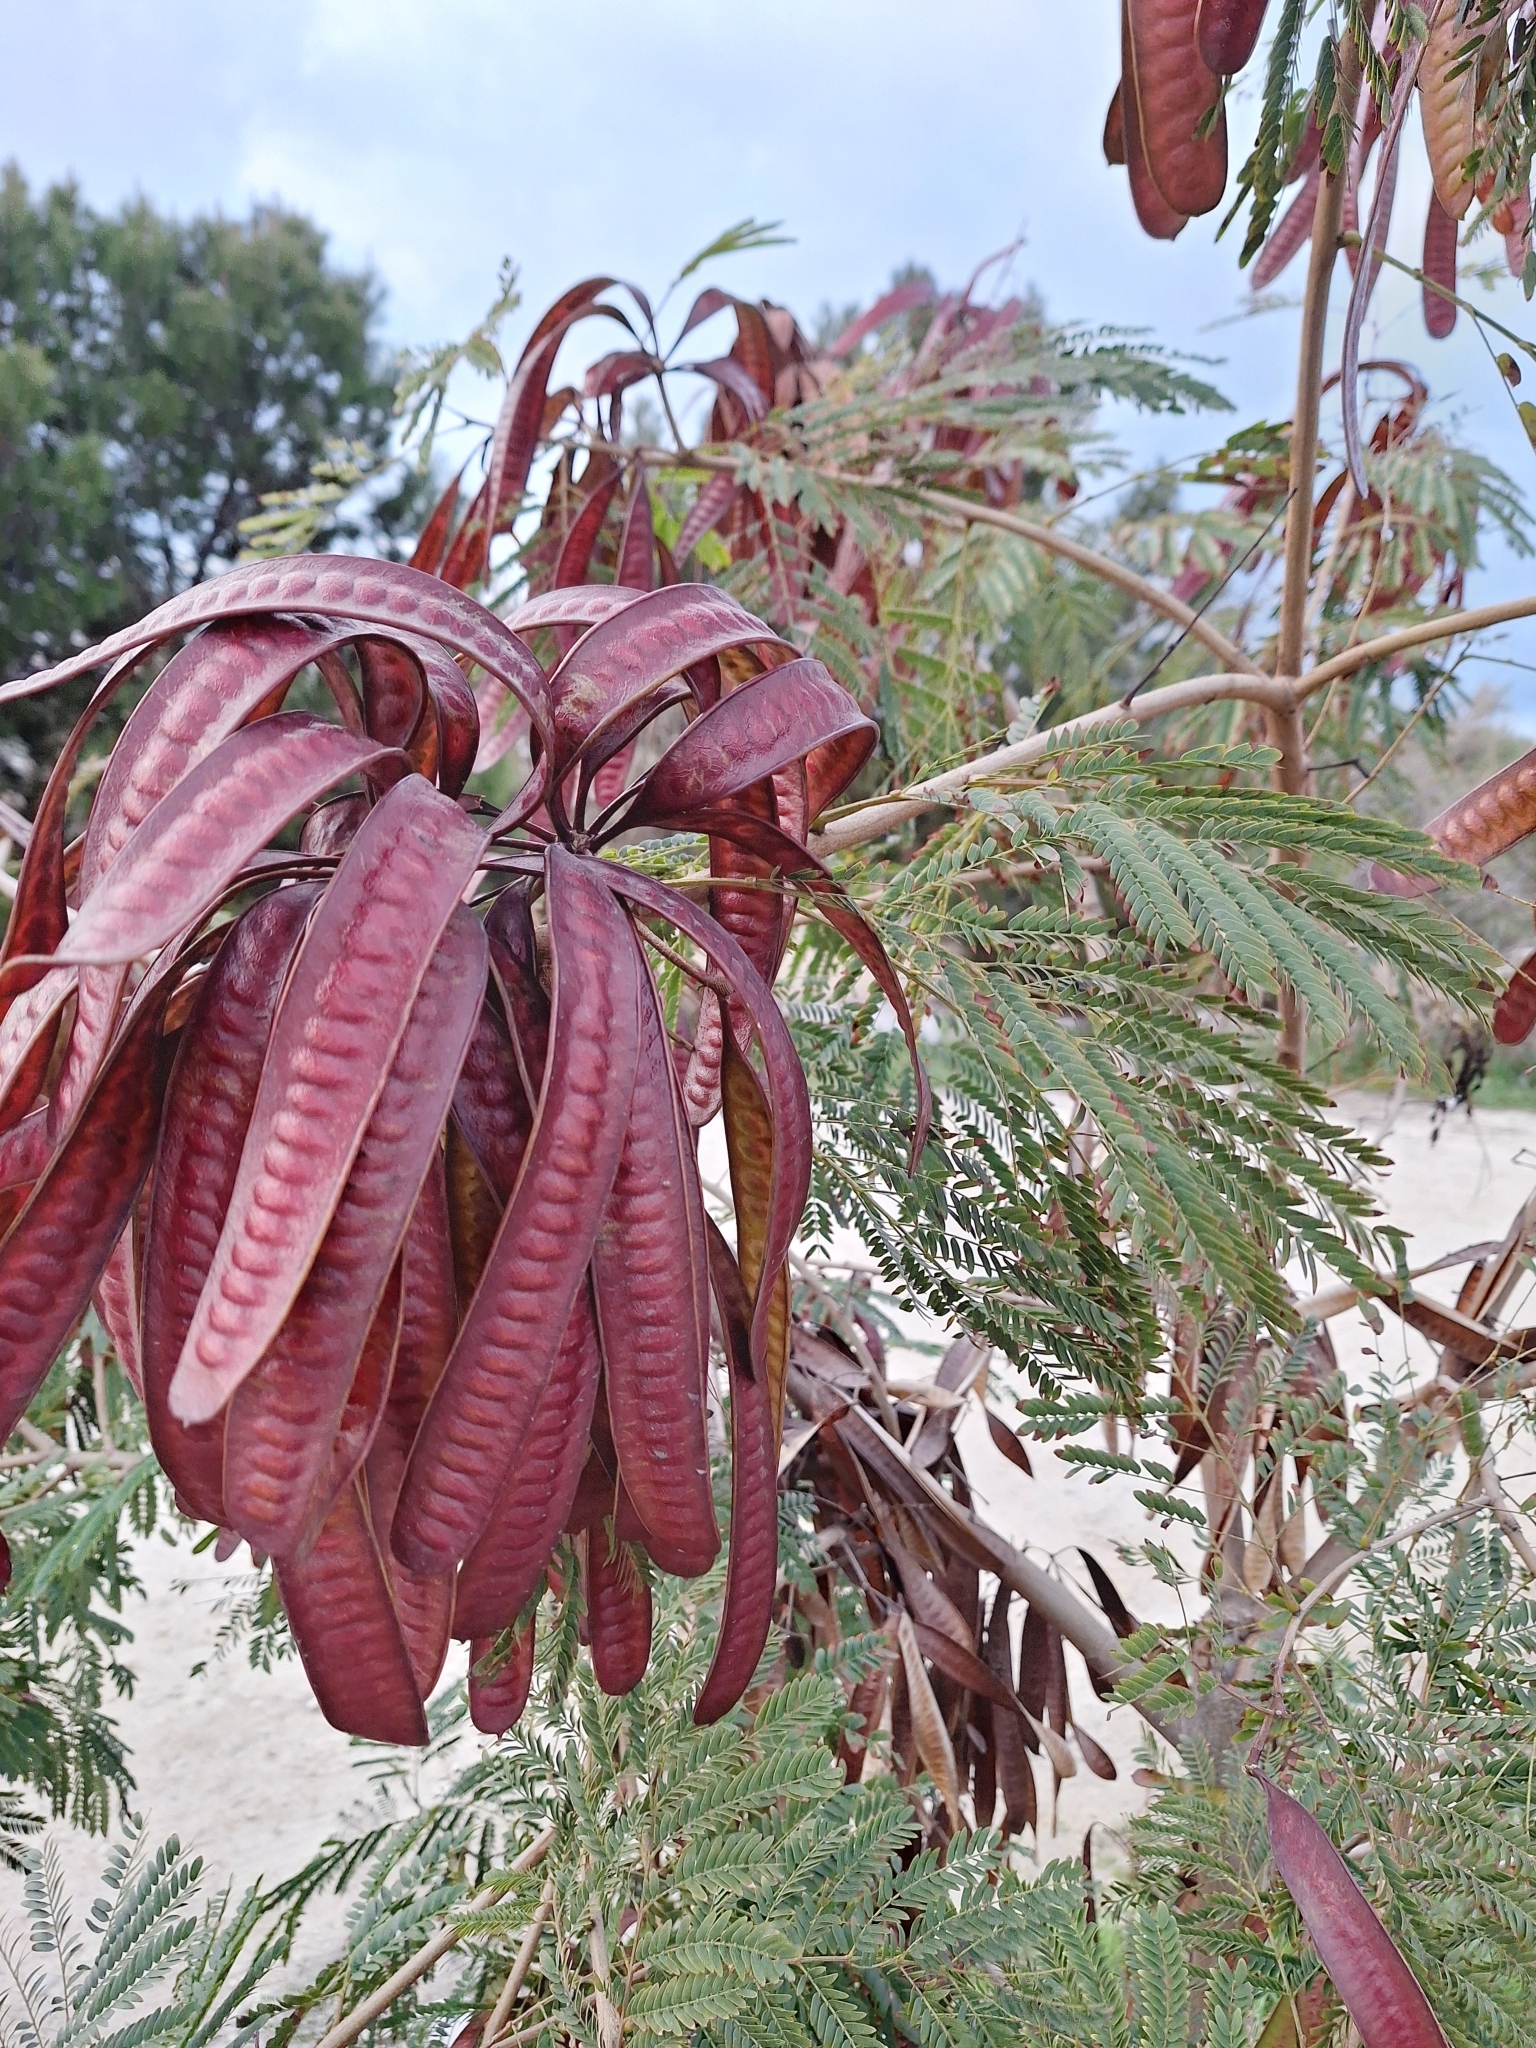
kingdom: Plantae
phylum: Tracheophyta
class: Magnoliopsida
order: Fabales
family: Fabaceae
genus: Leucaena
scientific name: Leucaena leucocephala
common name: White leadtree
